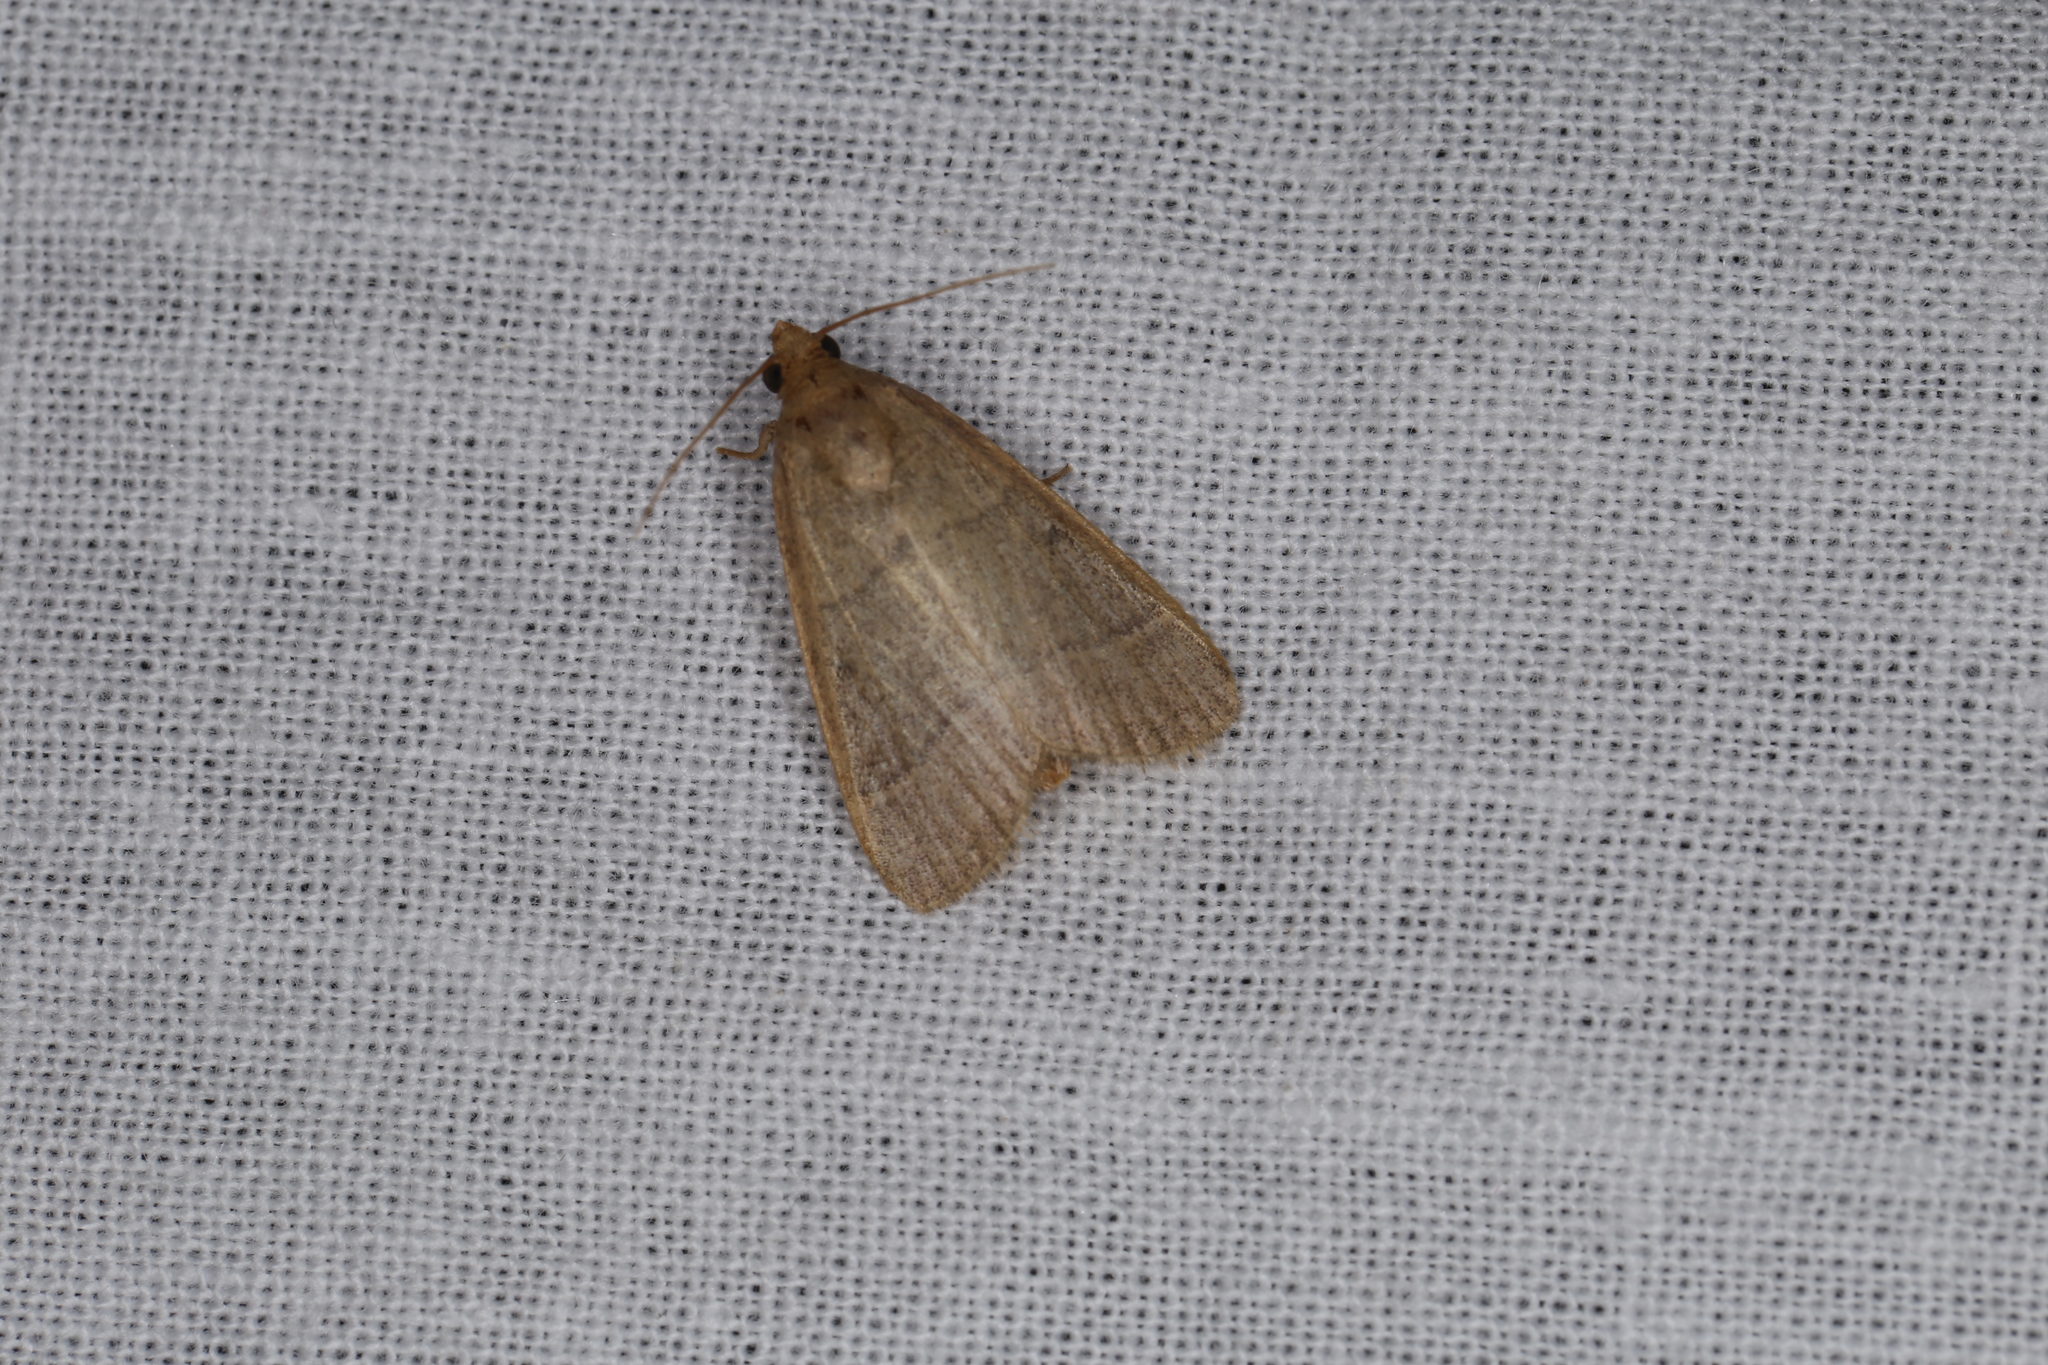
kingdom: Animalia
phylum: Arthropoda
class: Insecta
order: Lepidoptera
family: Pyralidae
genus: Hypsopygia
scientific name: Hypsopygia nostralis
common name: Southern hayworm moth
